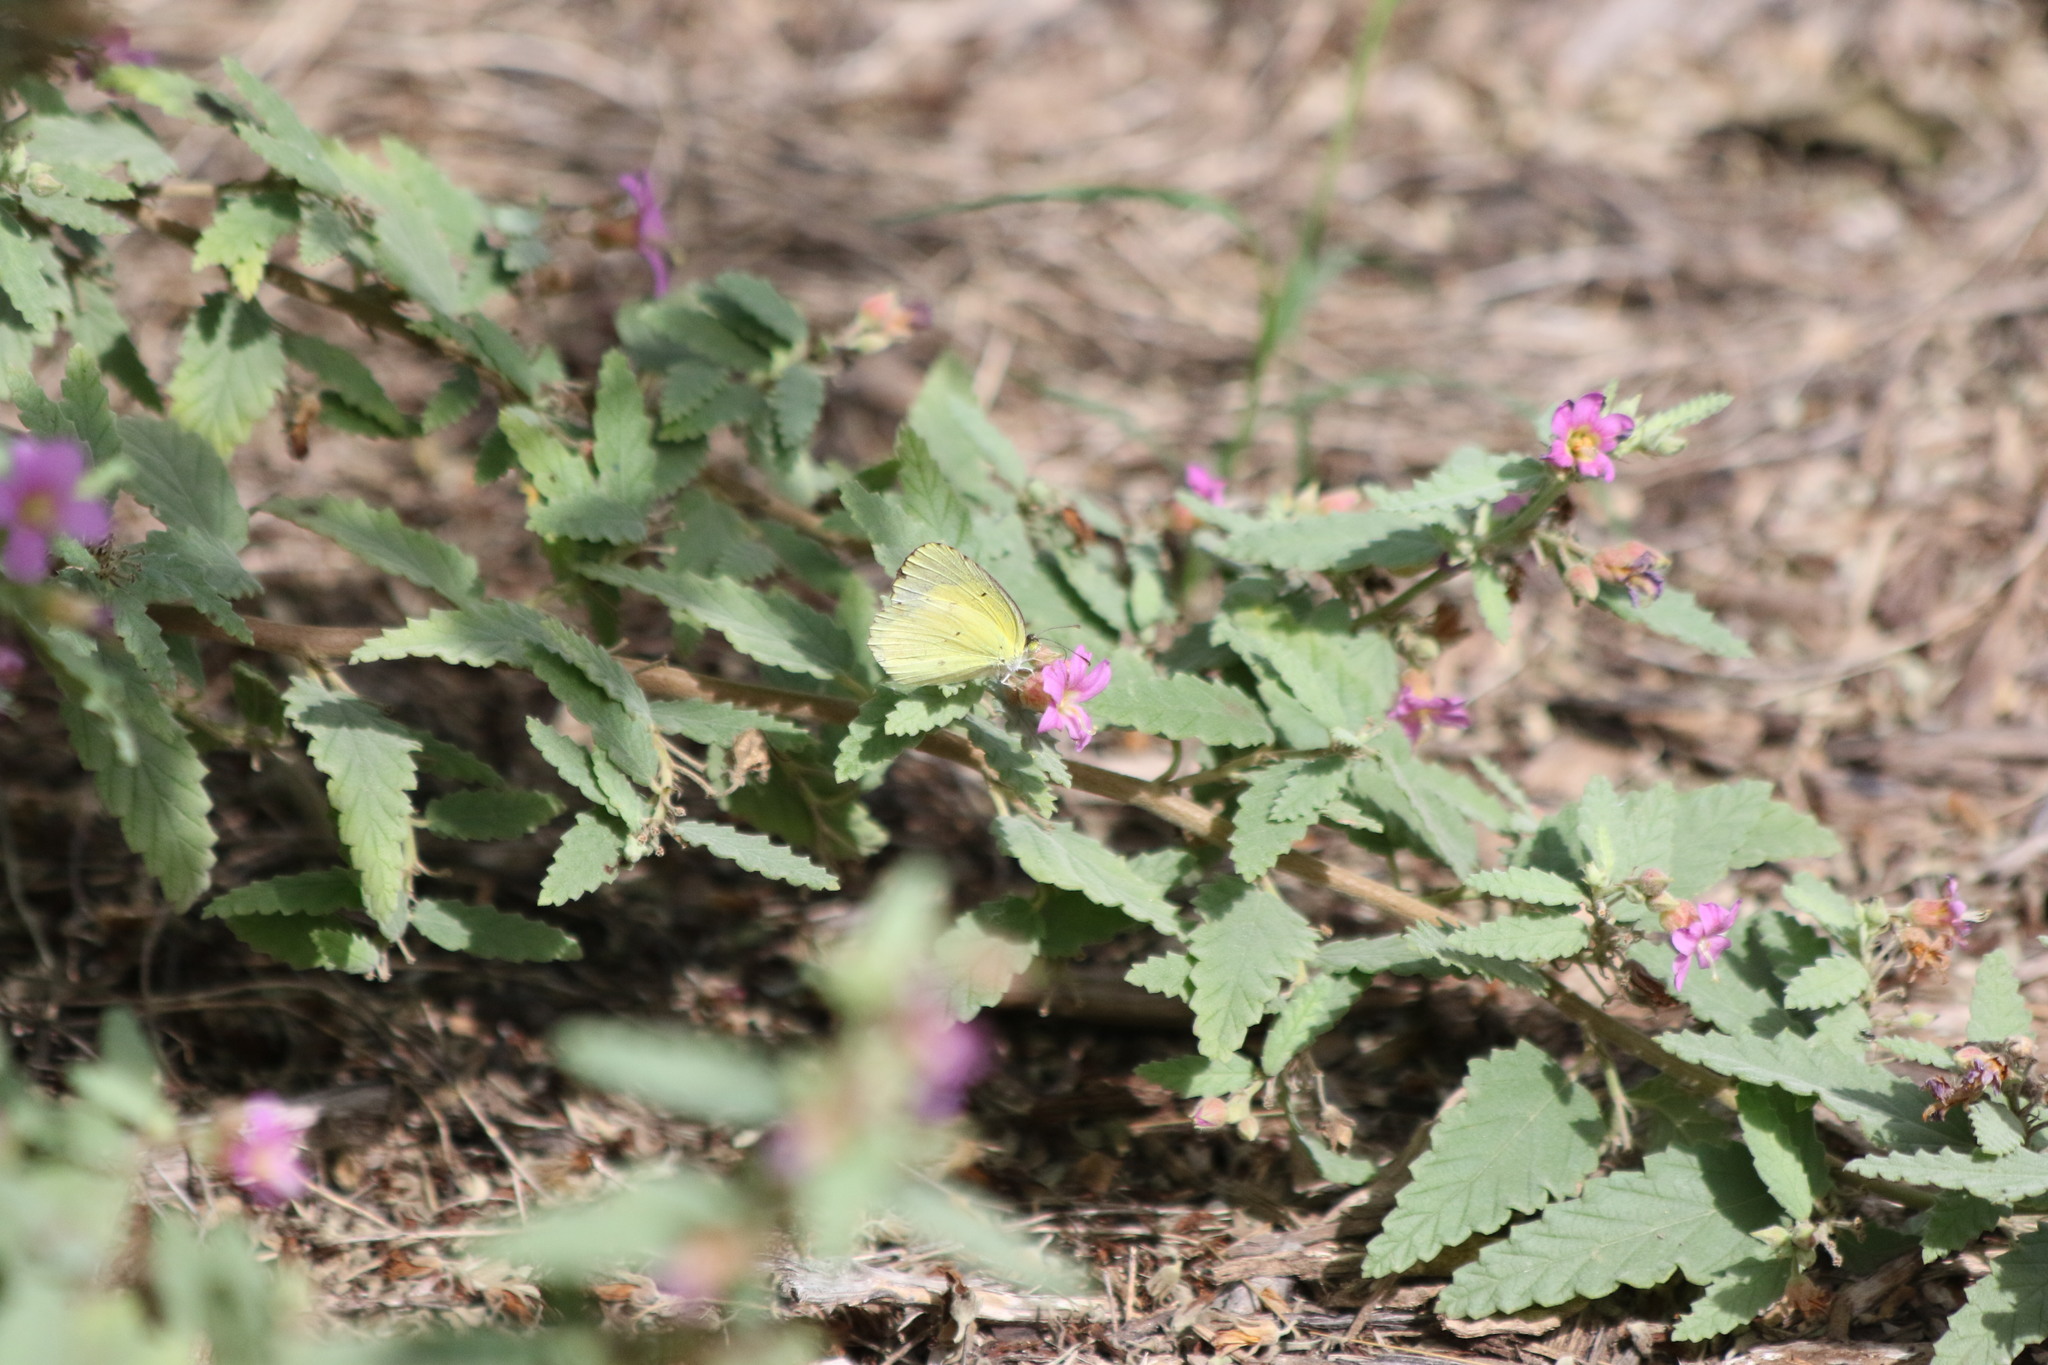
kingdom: Animalia
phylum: Arthropoda
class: Insecta
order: Lepidoptera
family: Pieridae
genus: Pyrisitia
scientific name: Pyrisitia lisa
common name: Little yellow
